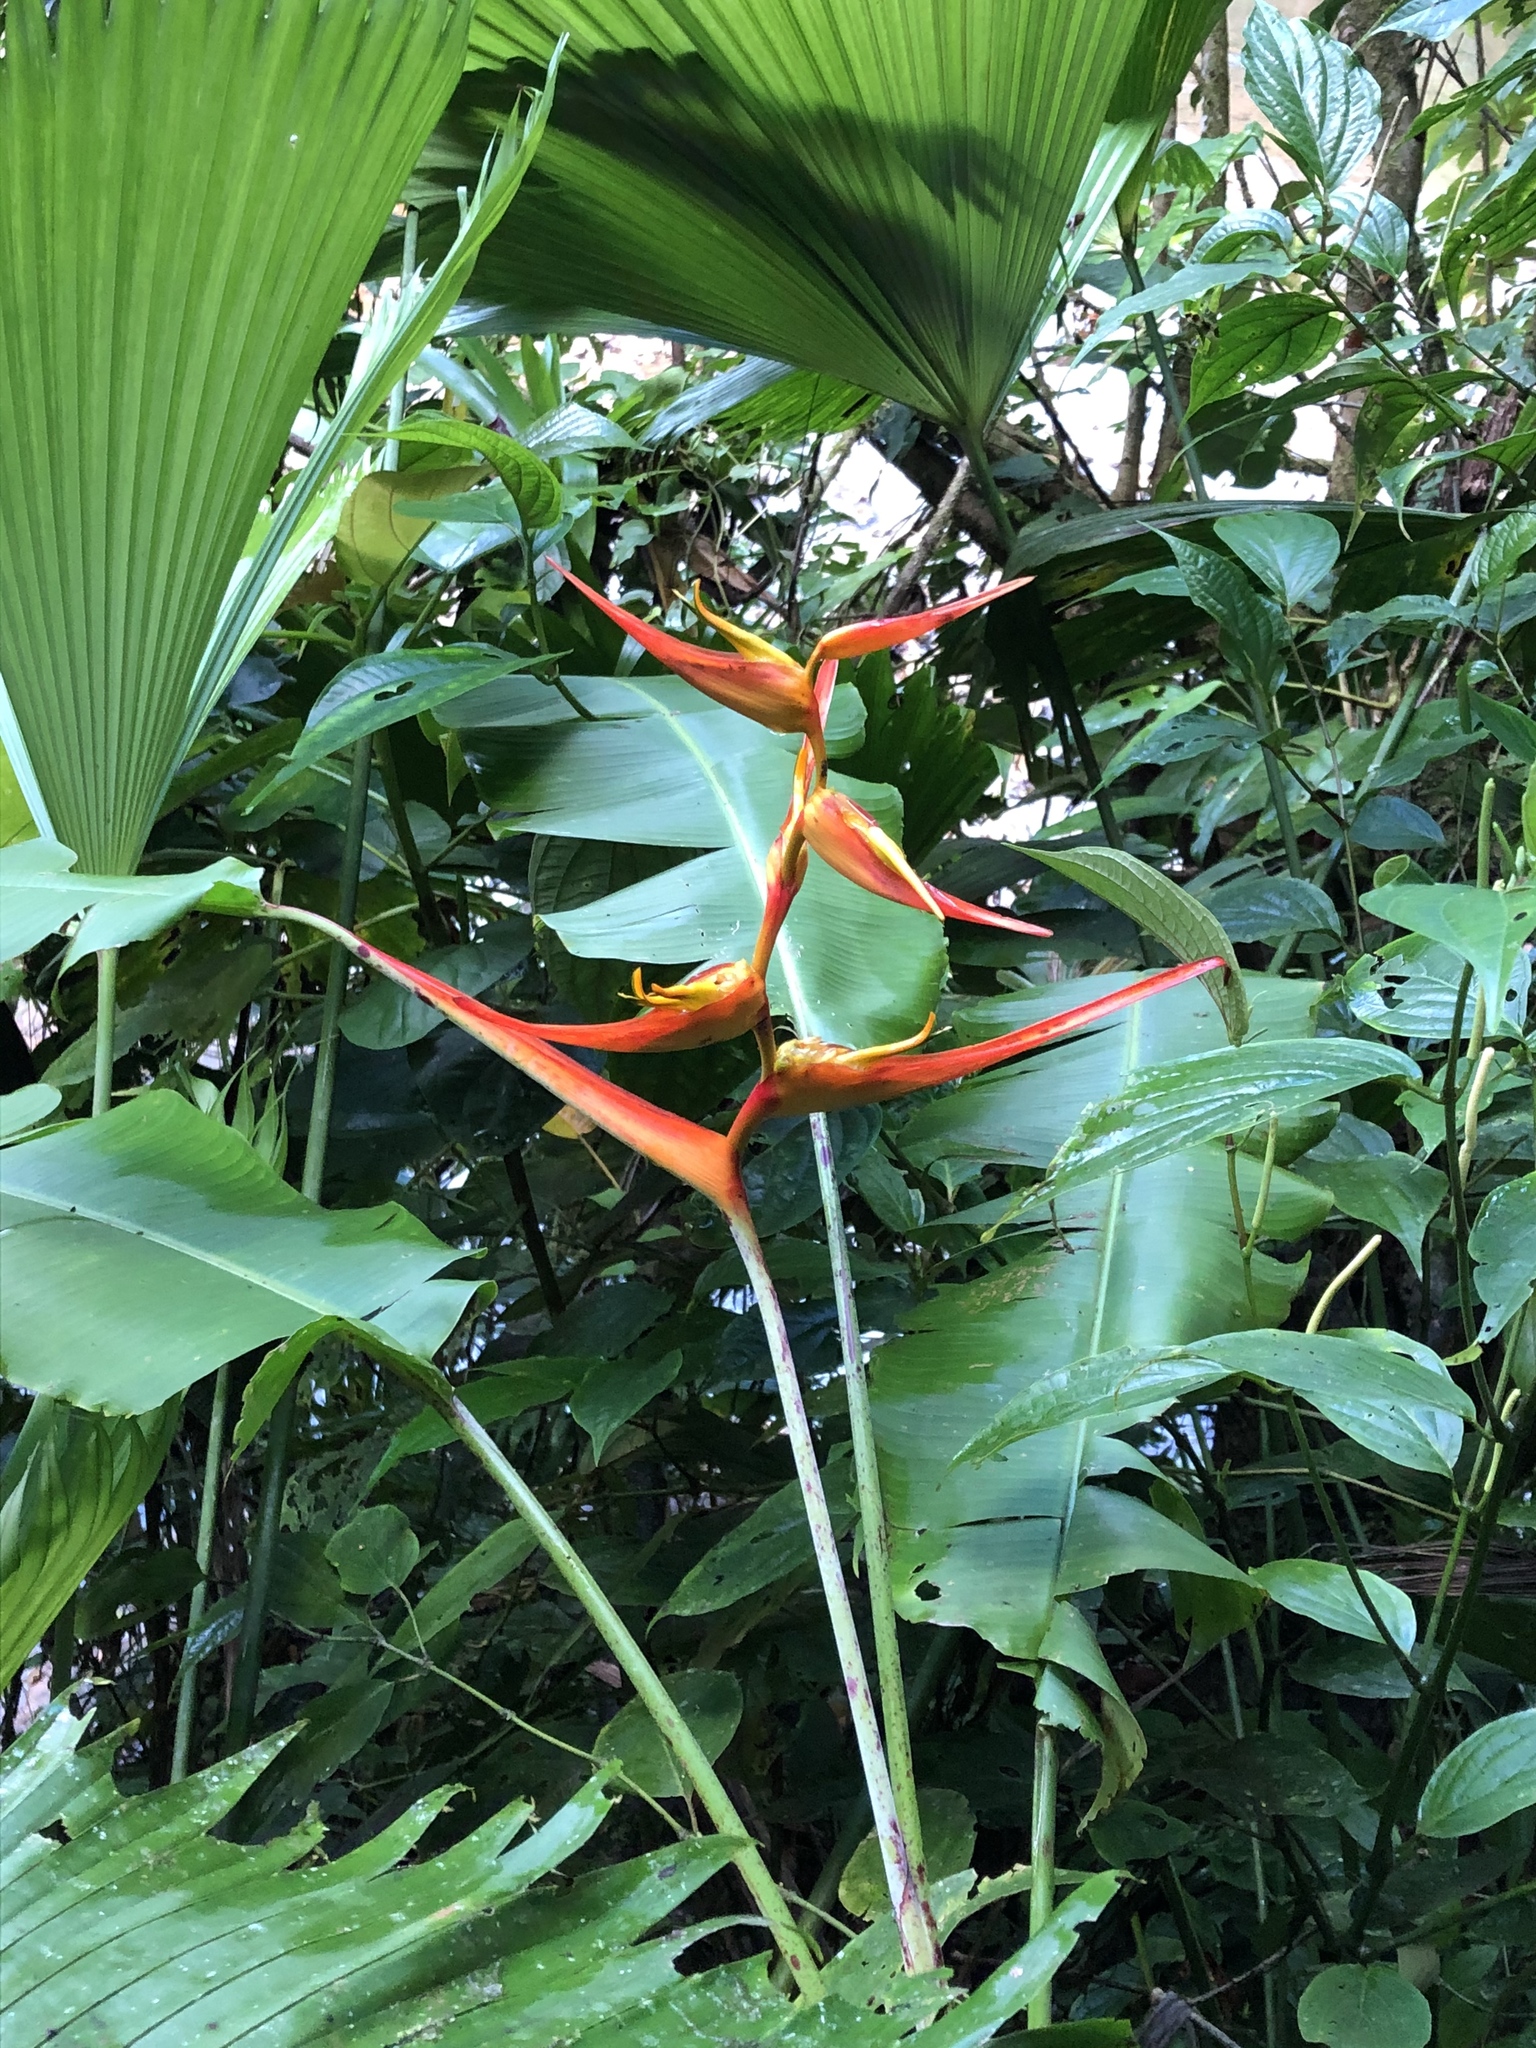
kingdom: Plantae
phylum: Tracheophyta
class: Liliopsida
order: Zingiberales
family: Heliconiaceae
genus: Heliconia
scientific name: Heliconia latispatha
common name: Expanded lobsterclaw
